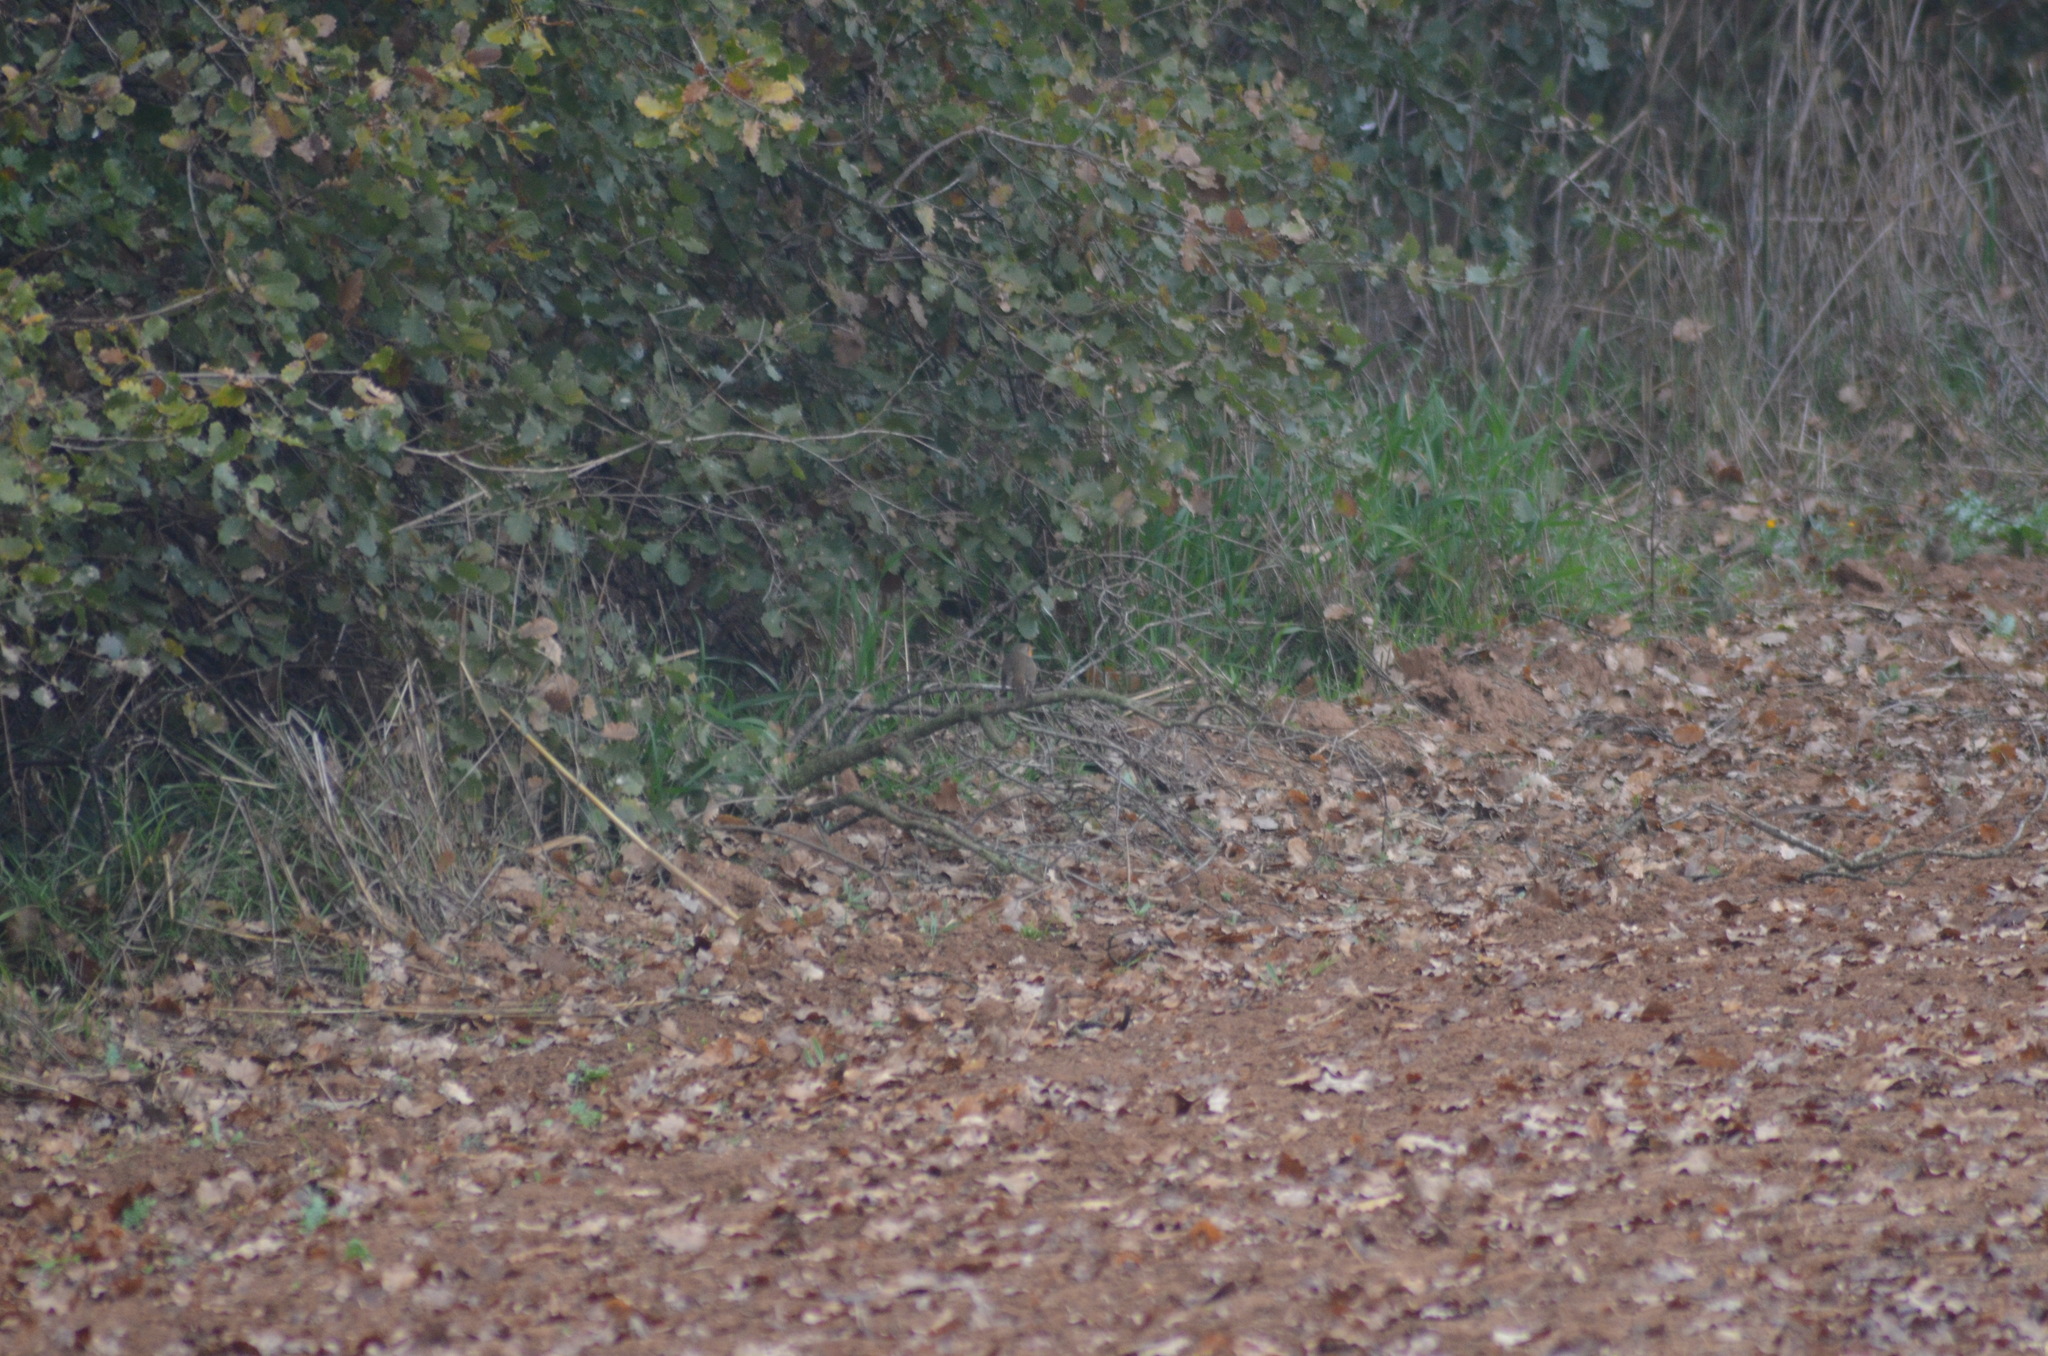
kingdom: Animalia
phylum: Chordata
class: Aves
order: Passeriformes
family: Muscicapidae
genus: Erithacus
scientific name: Erithacus rubecula
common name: European robin
